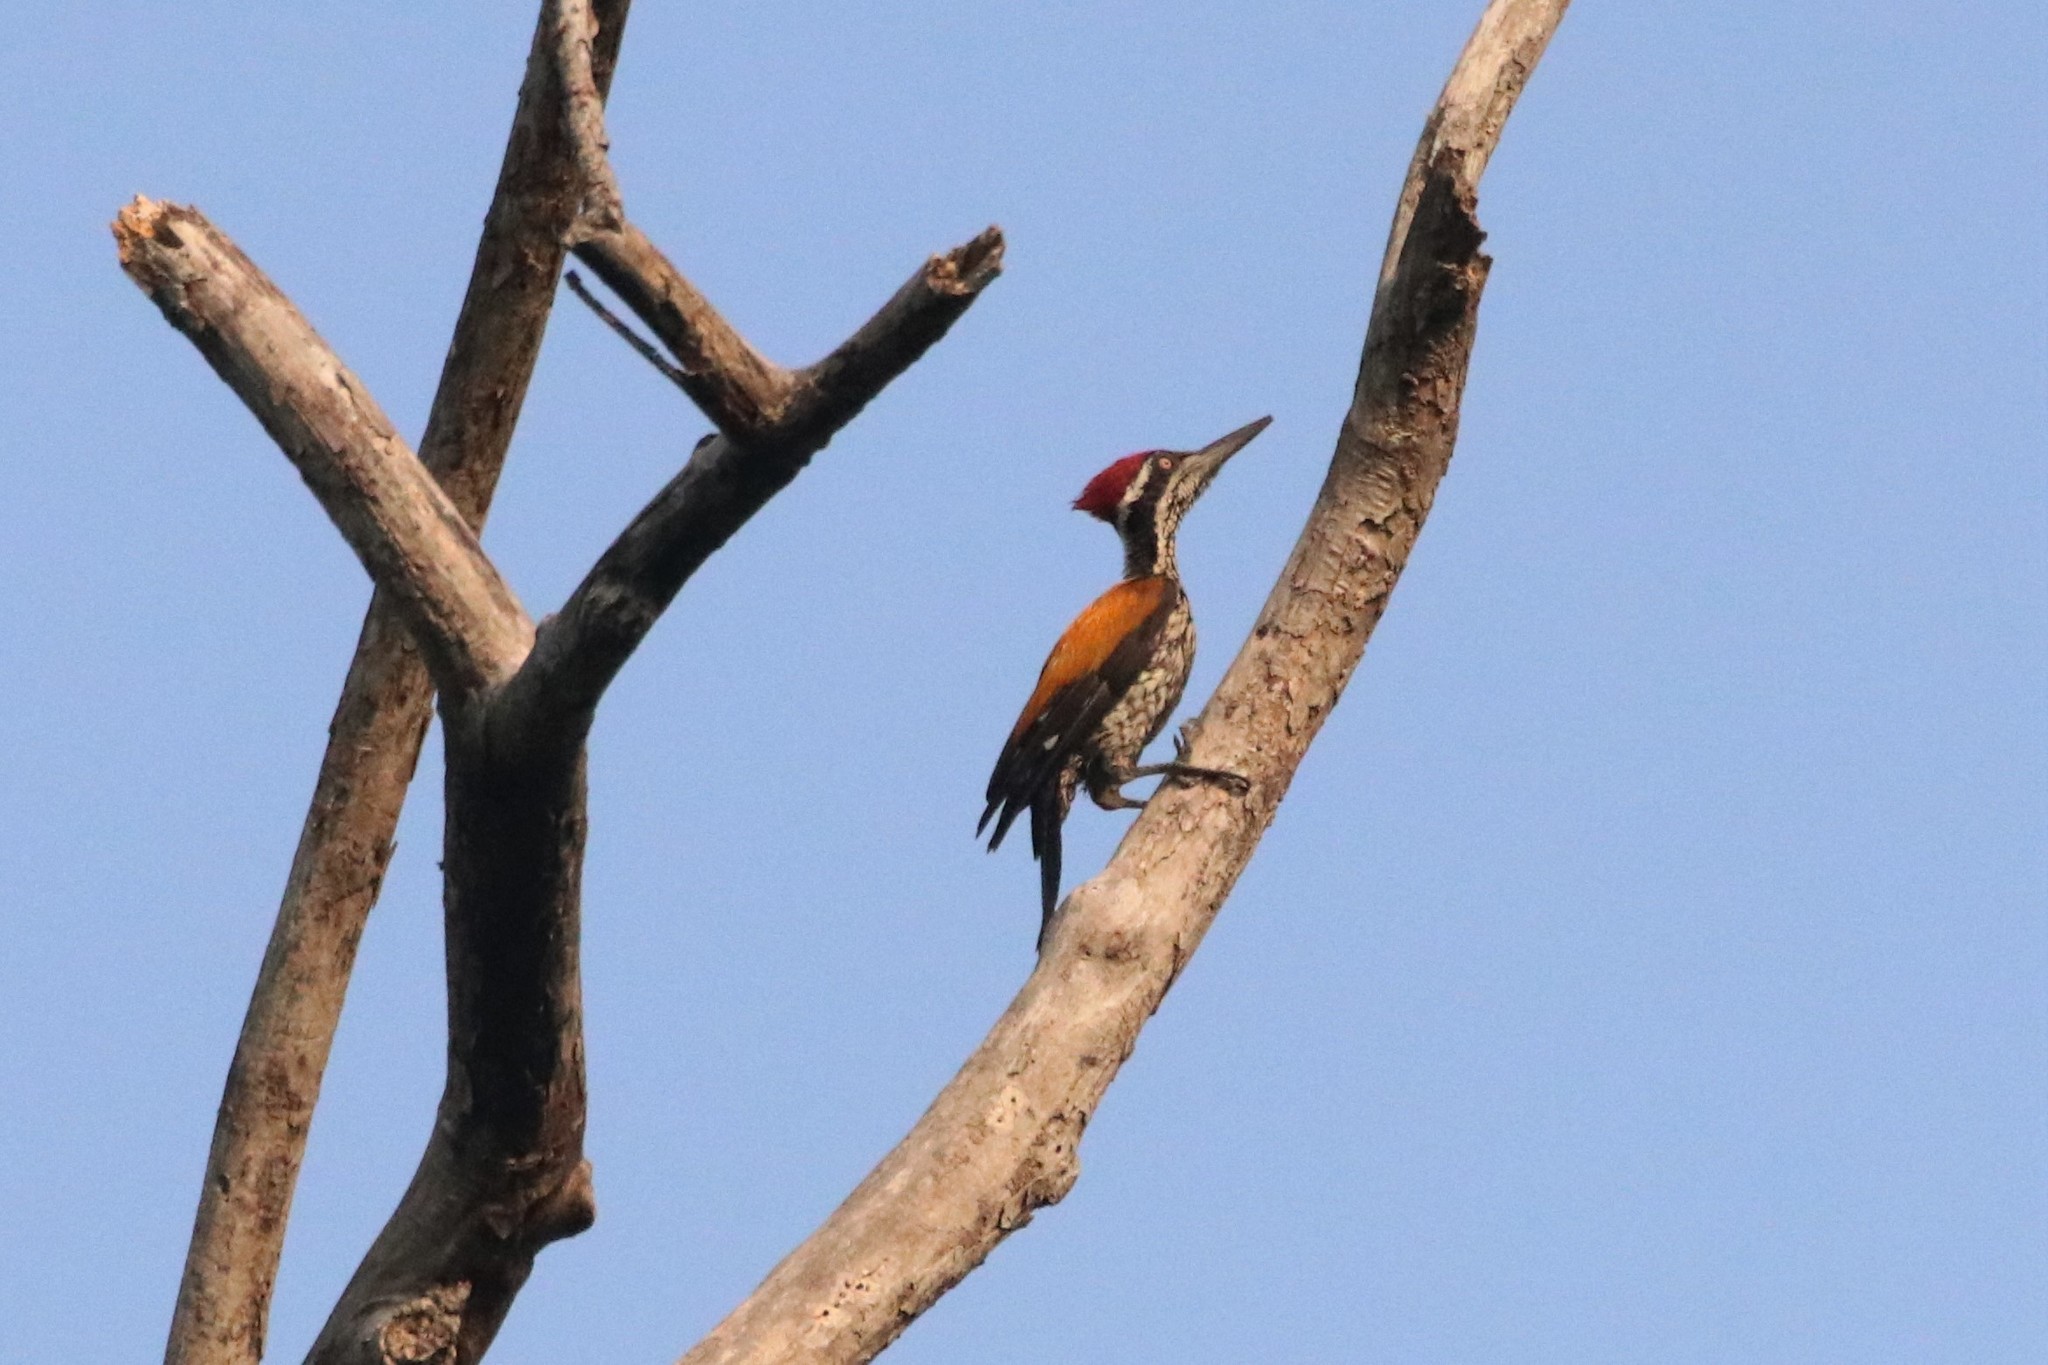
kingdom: Animalia
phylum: Chordata
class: Aves
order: Piciformes
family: Picidae
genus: Chrysocolaptes
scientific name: Chrysocolaptes guttacristatus
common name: Greater flameback
